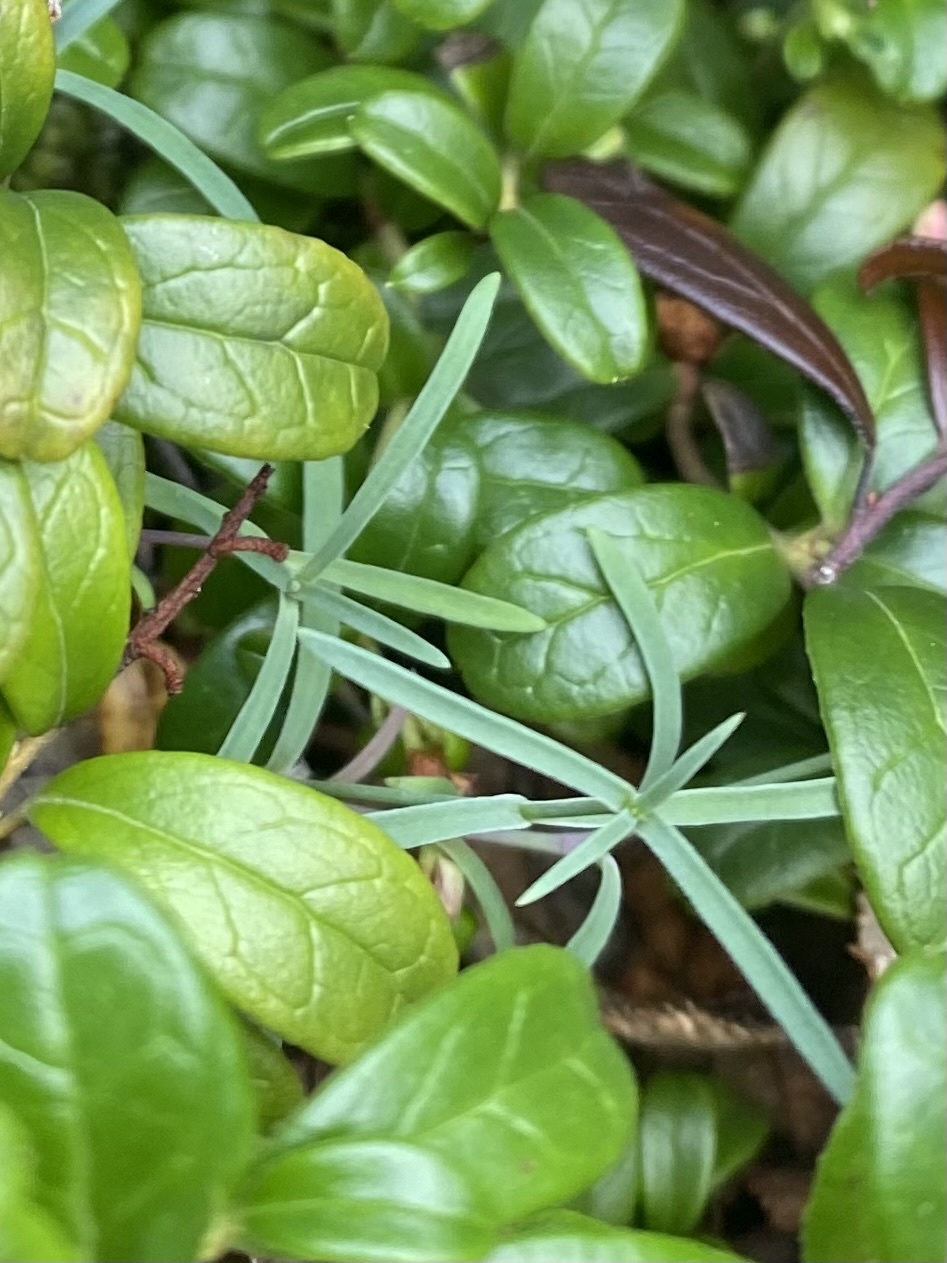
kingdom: Plantae
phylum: Tracheophyta
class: Magnoliopsida
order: Caryophyllales
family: Caryophyllaceae
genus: Dianthus
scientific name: Dianthus repens
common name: Northern pink
